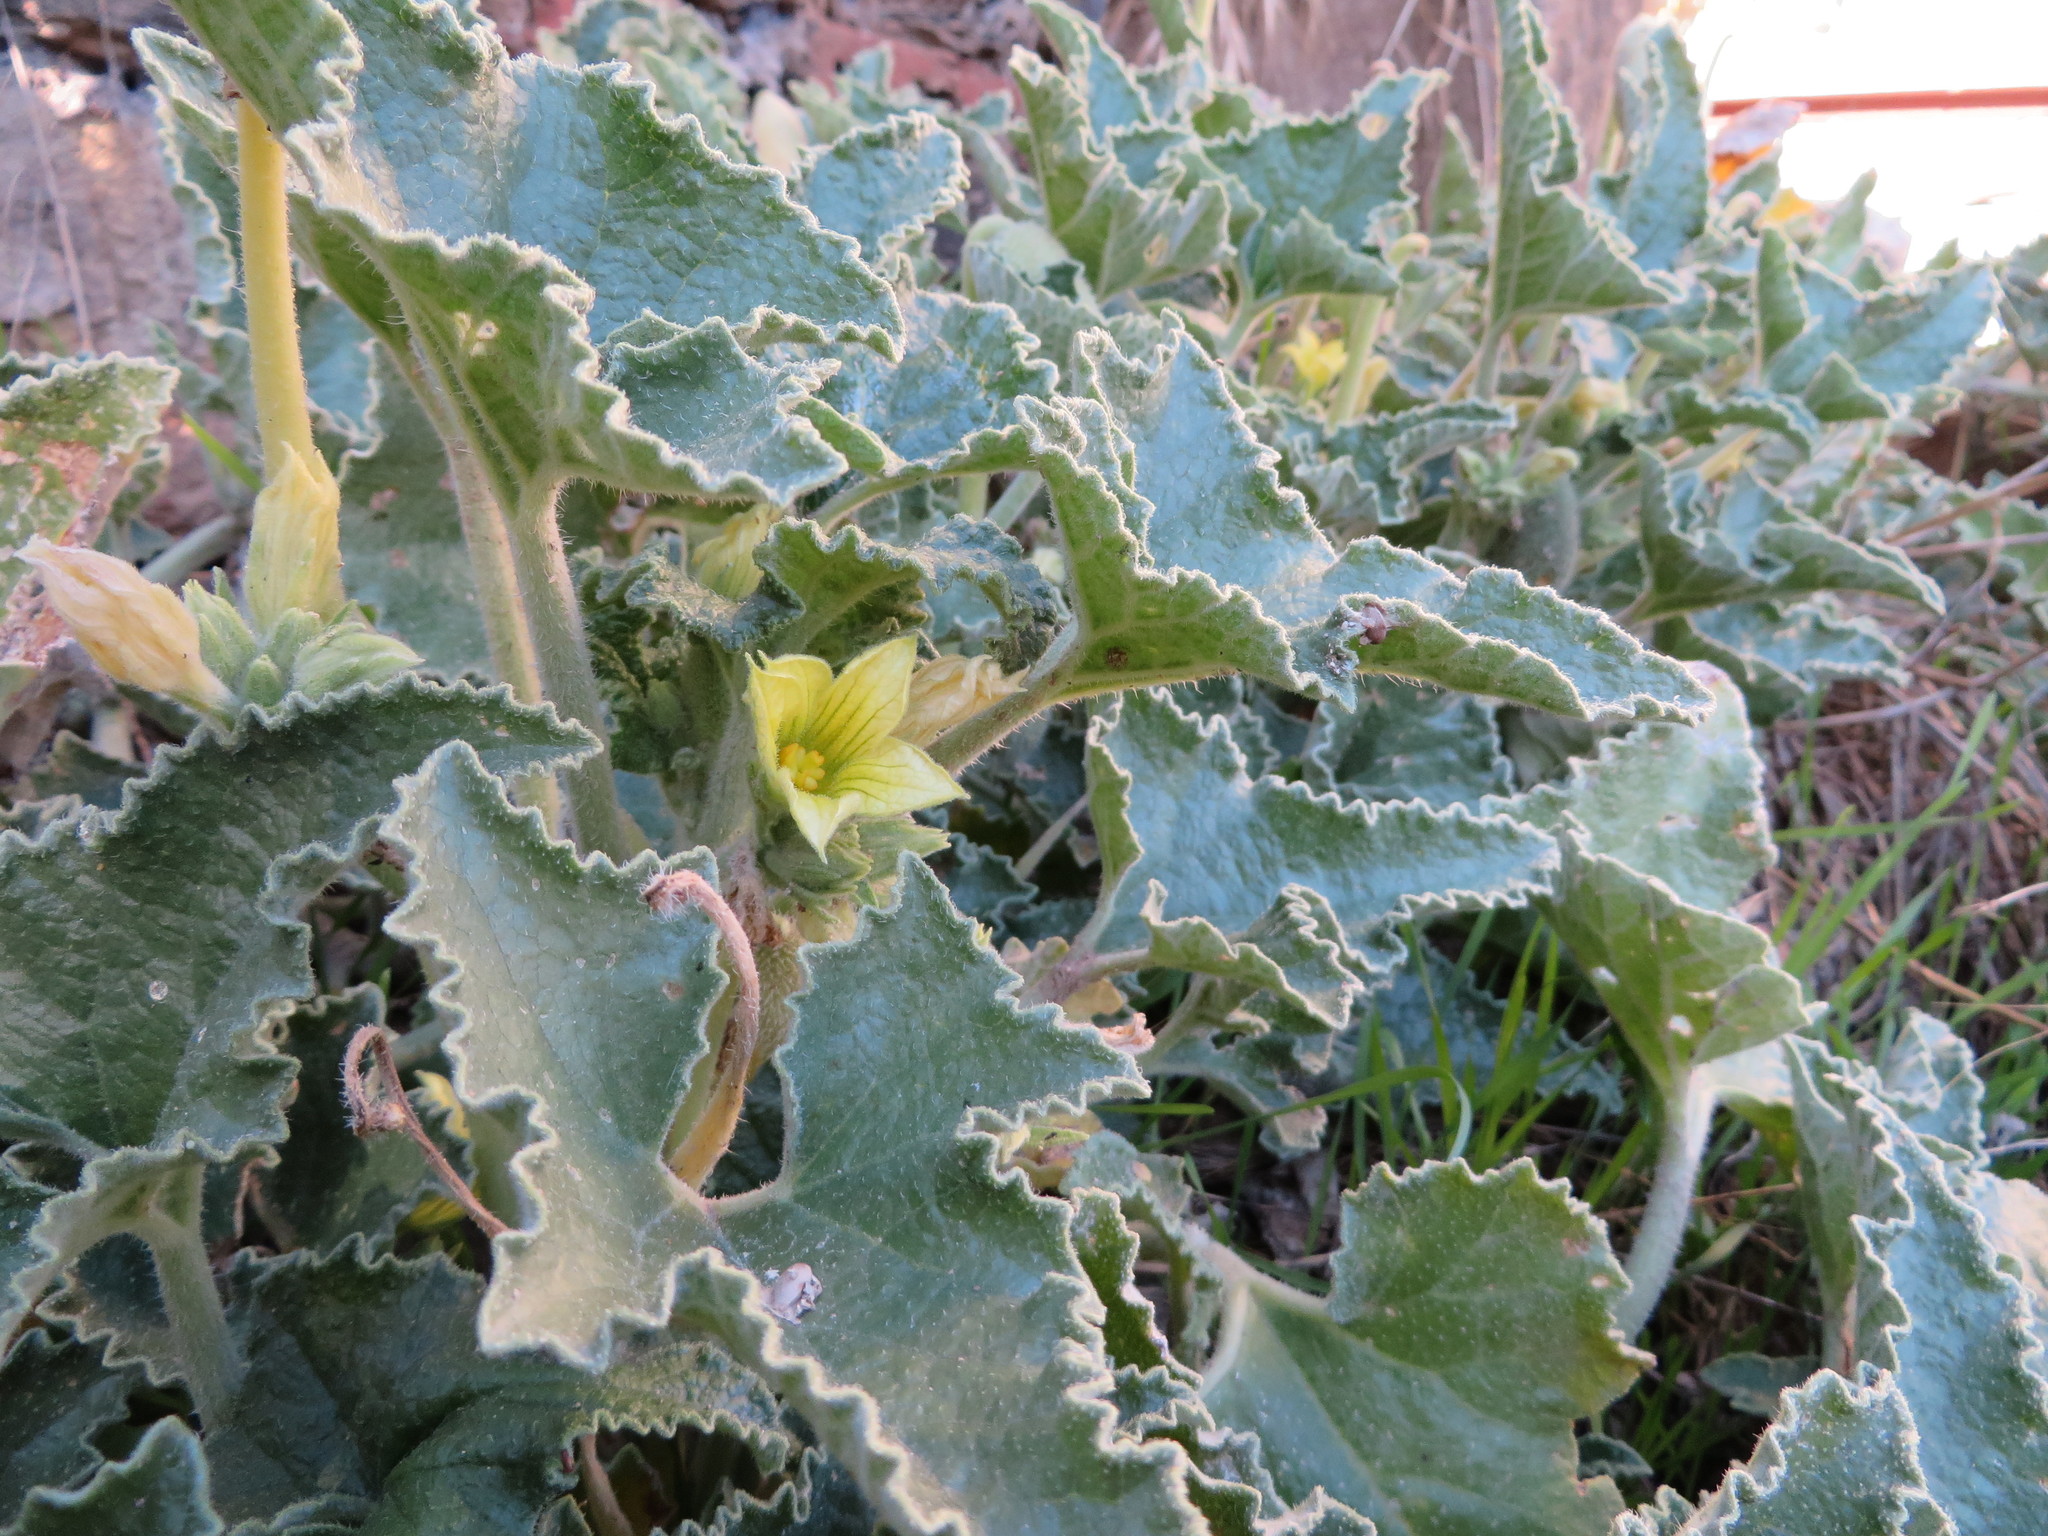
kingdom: Plantae
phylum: Tracheophyta
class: Magnoliopsida
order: Cucurbitales
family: Cucurbitaceae
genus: Ecballium
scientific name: Ecballium elaterium
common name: Squirting cucumber
